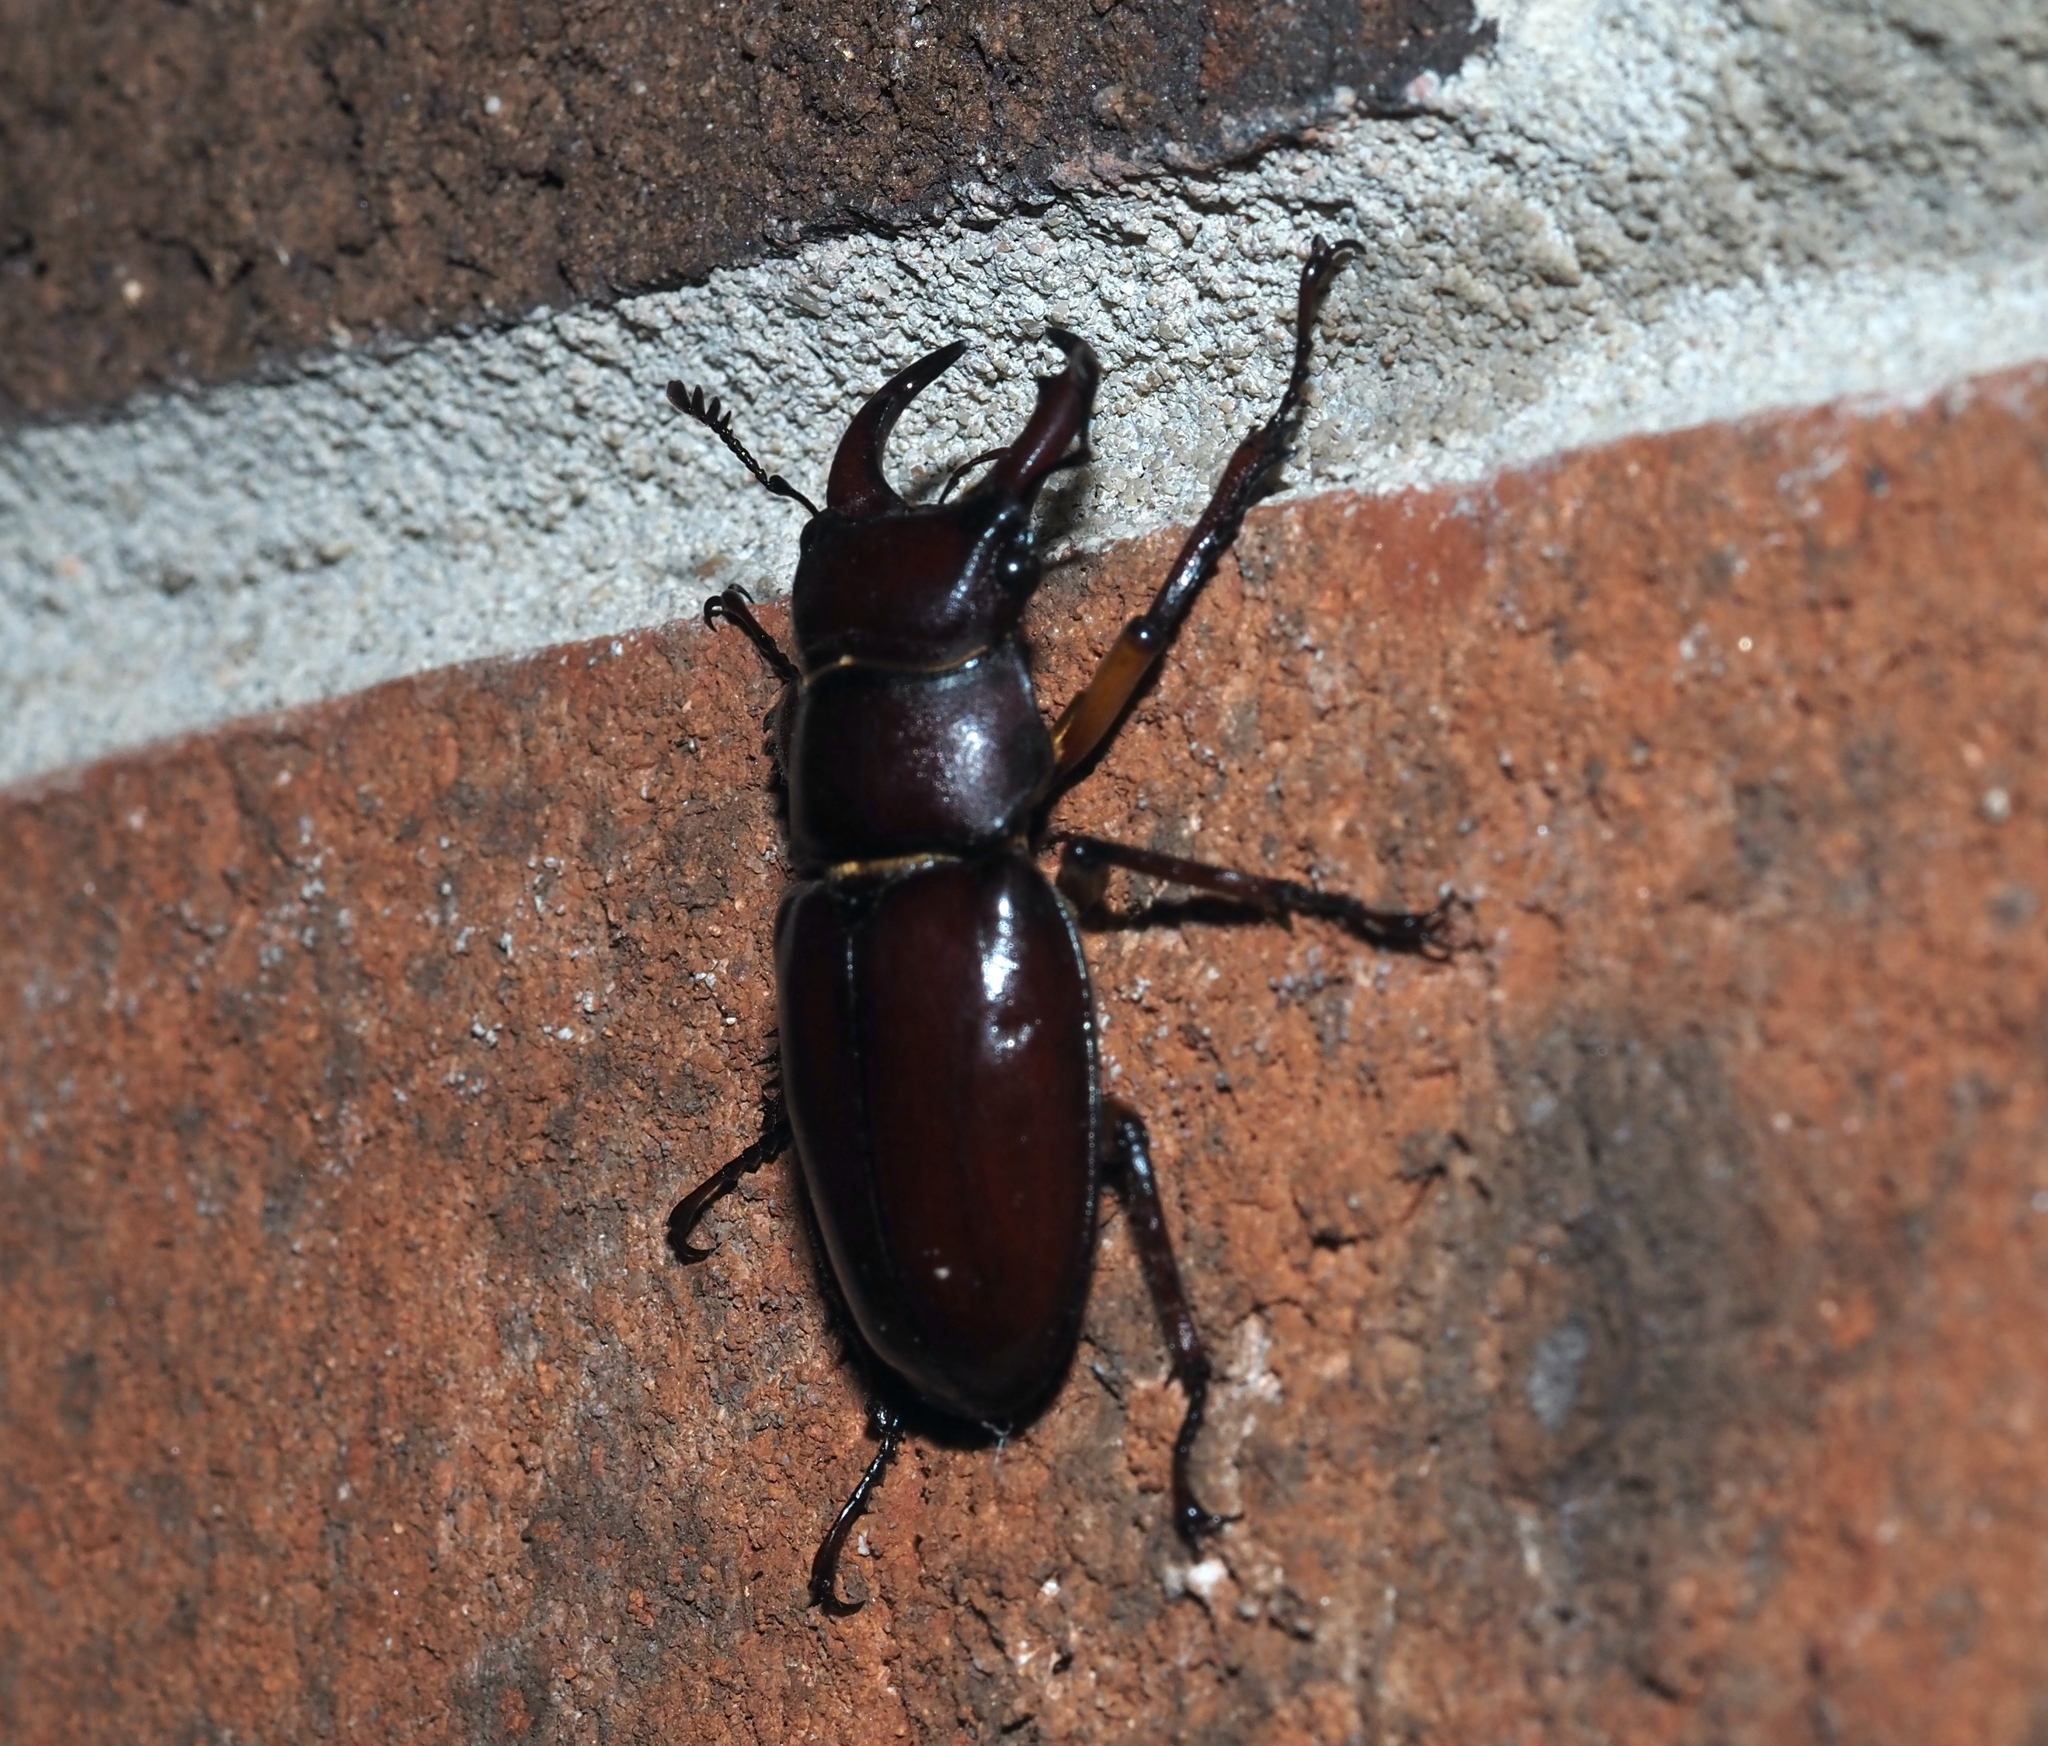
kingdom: Animalia
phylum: Arthropoda
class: Insecta
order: Coleoptera
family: Lucanidae
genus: Lucanus
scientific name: Lucanus capreolus
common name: Stag beetle
